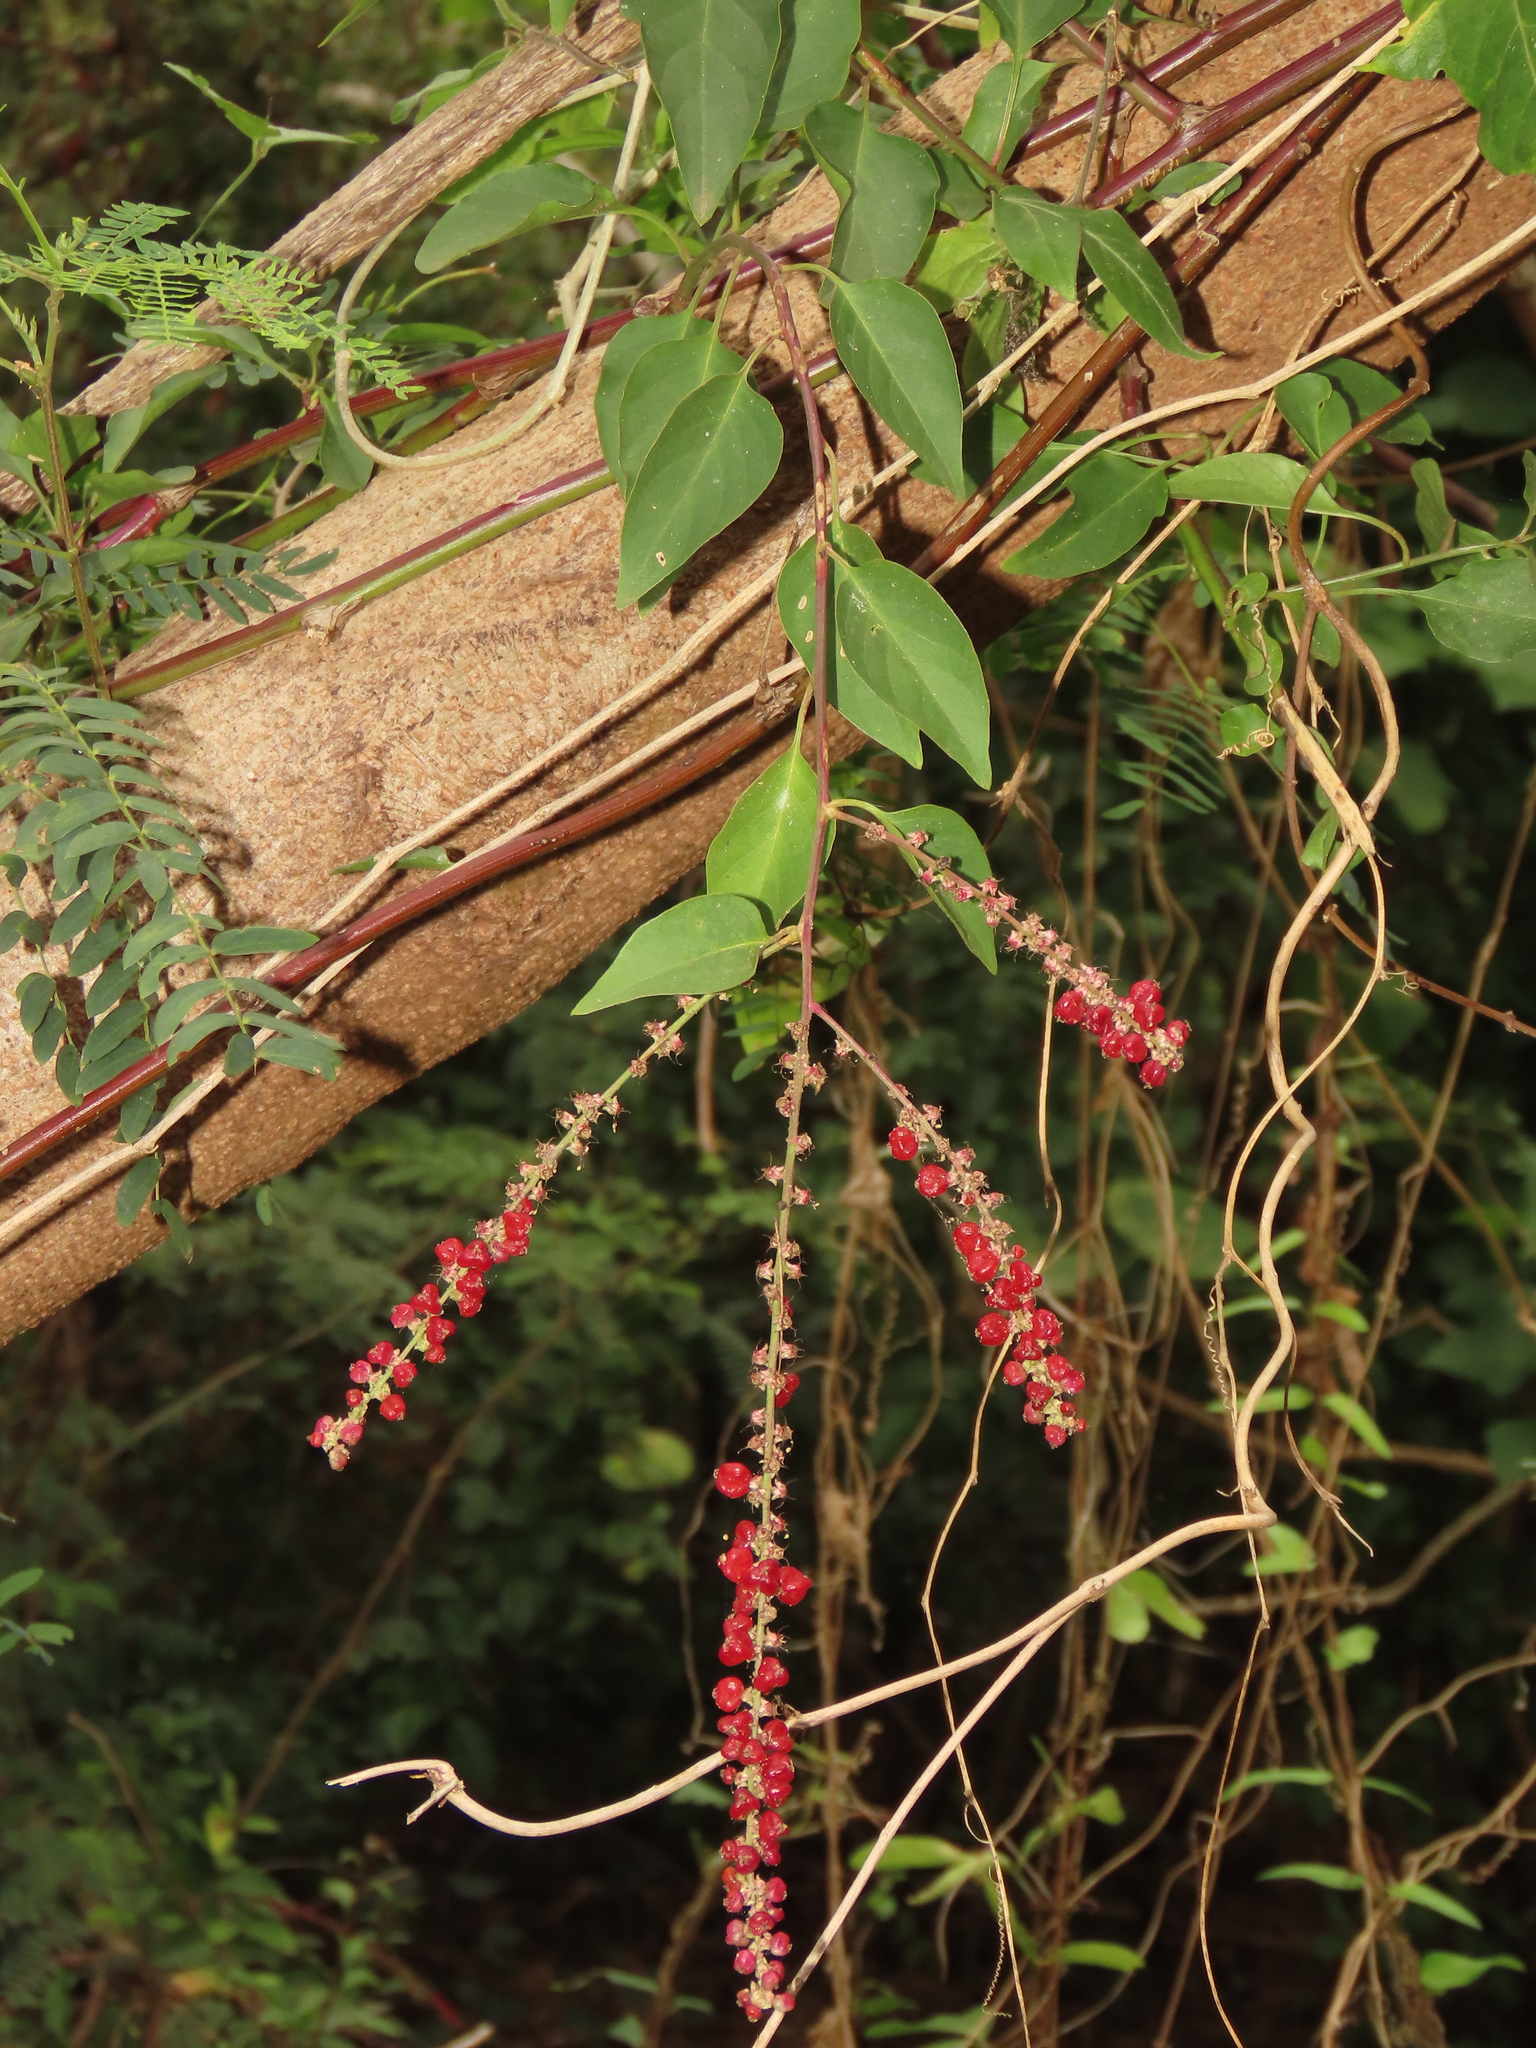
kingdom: Plantae
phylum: Tracheophyta
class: Magnoliopsida
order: Caryophyllales
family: Amaranthaceae
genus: Deeringia
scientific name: Deeringia amaranthoides
